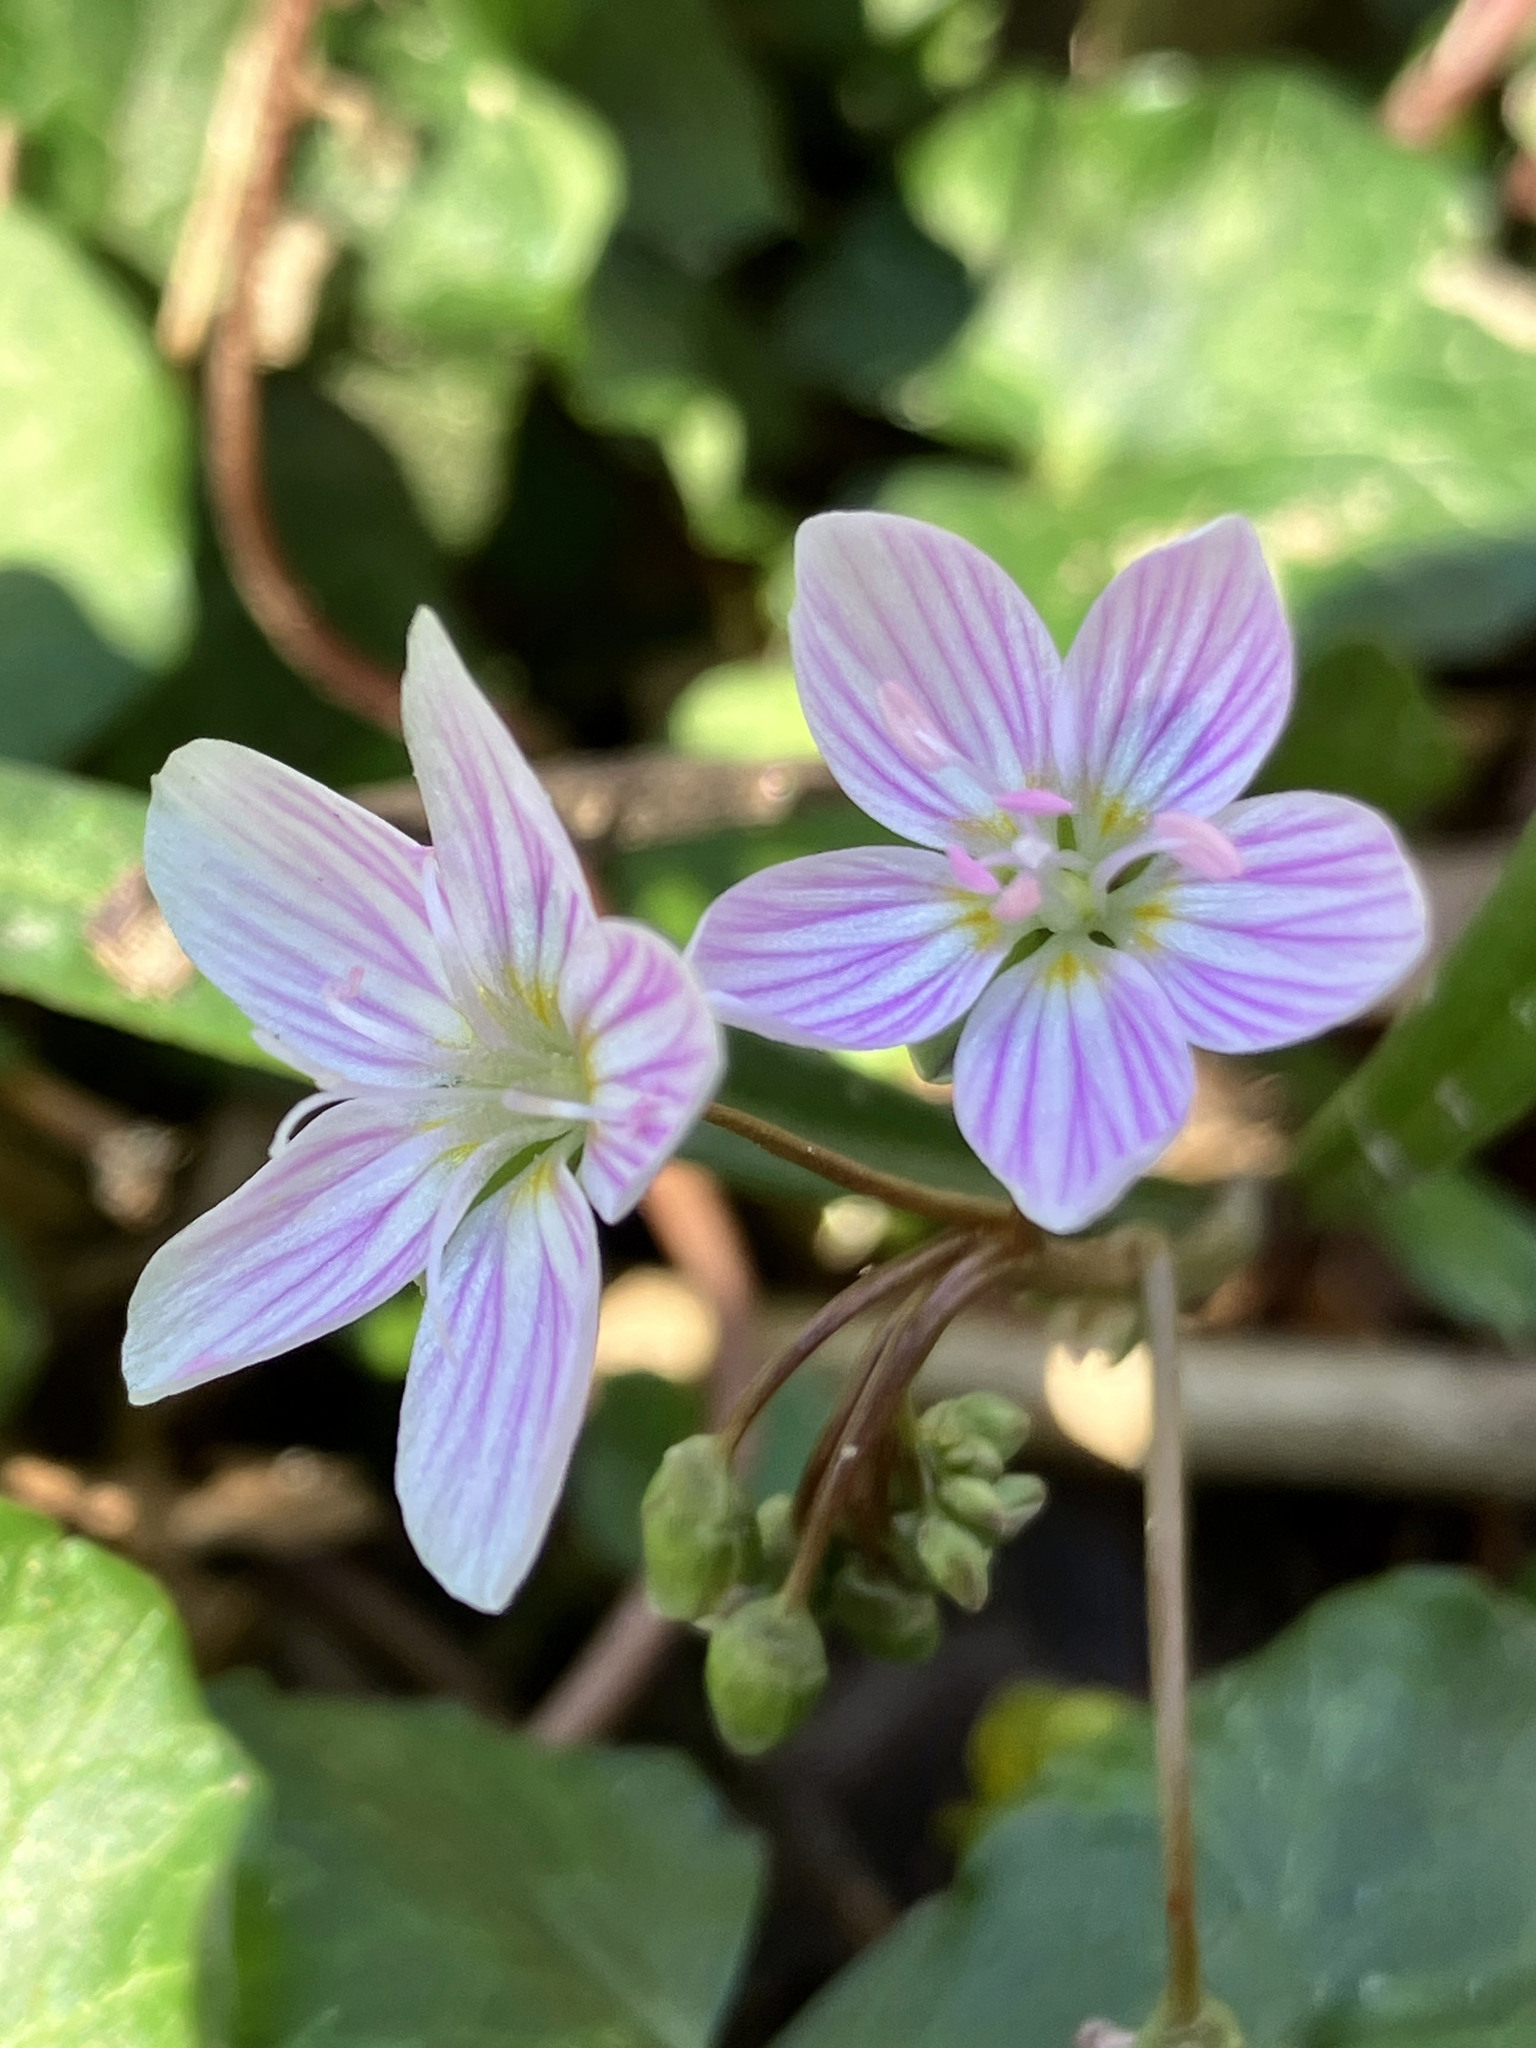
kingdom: Plantae
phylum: Tracheophyta
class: Magnoliopsida
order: Caryophyllales
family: Montiaceae
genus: Claytonia
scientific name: Claytonia virginica
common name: Virginia springbeauty
